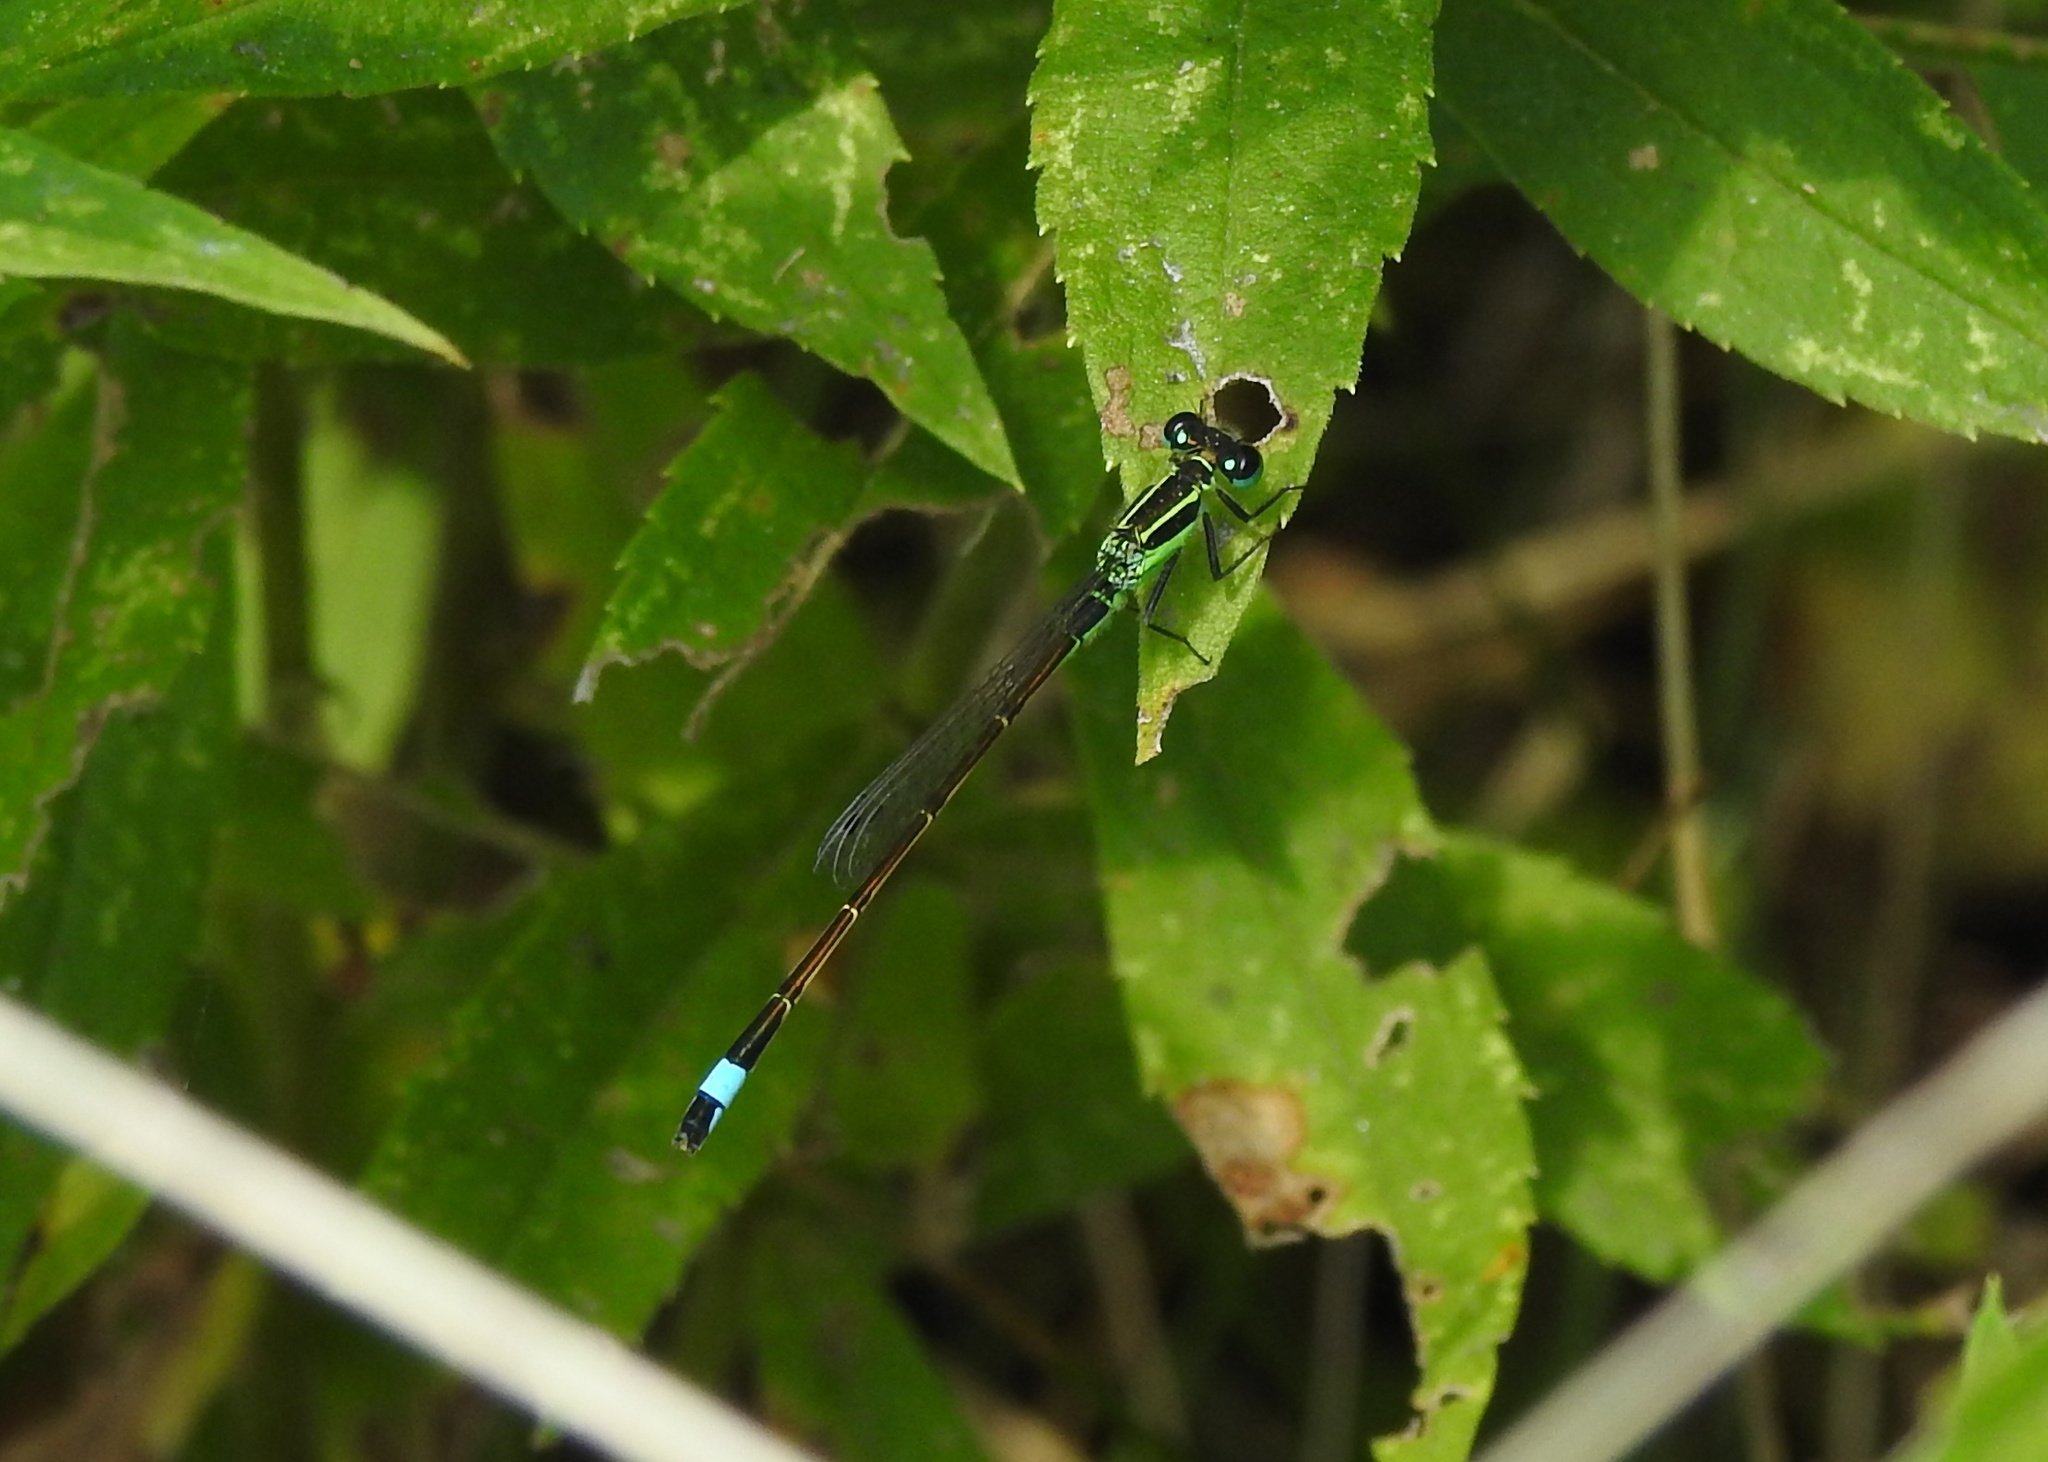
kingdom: Animalia
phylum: Arthropoda
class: Insecta
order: Odonata
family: Coenagrionidae
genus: Ischnura
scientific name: Ischnura ramburii
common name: Rambur's forktail
